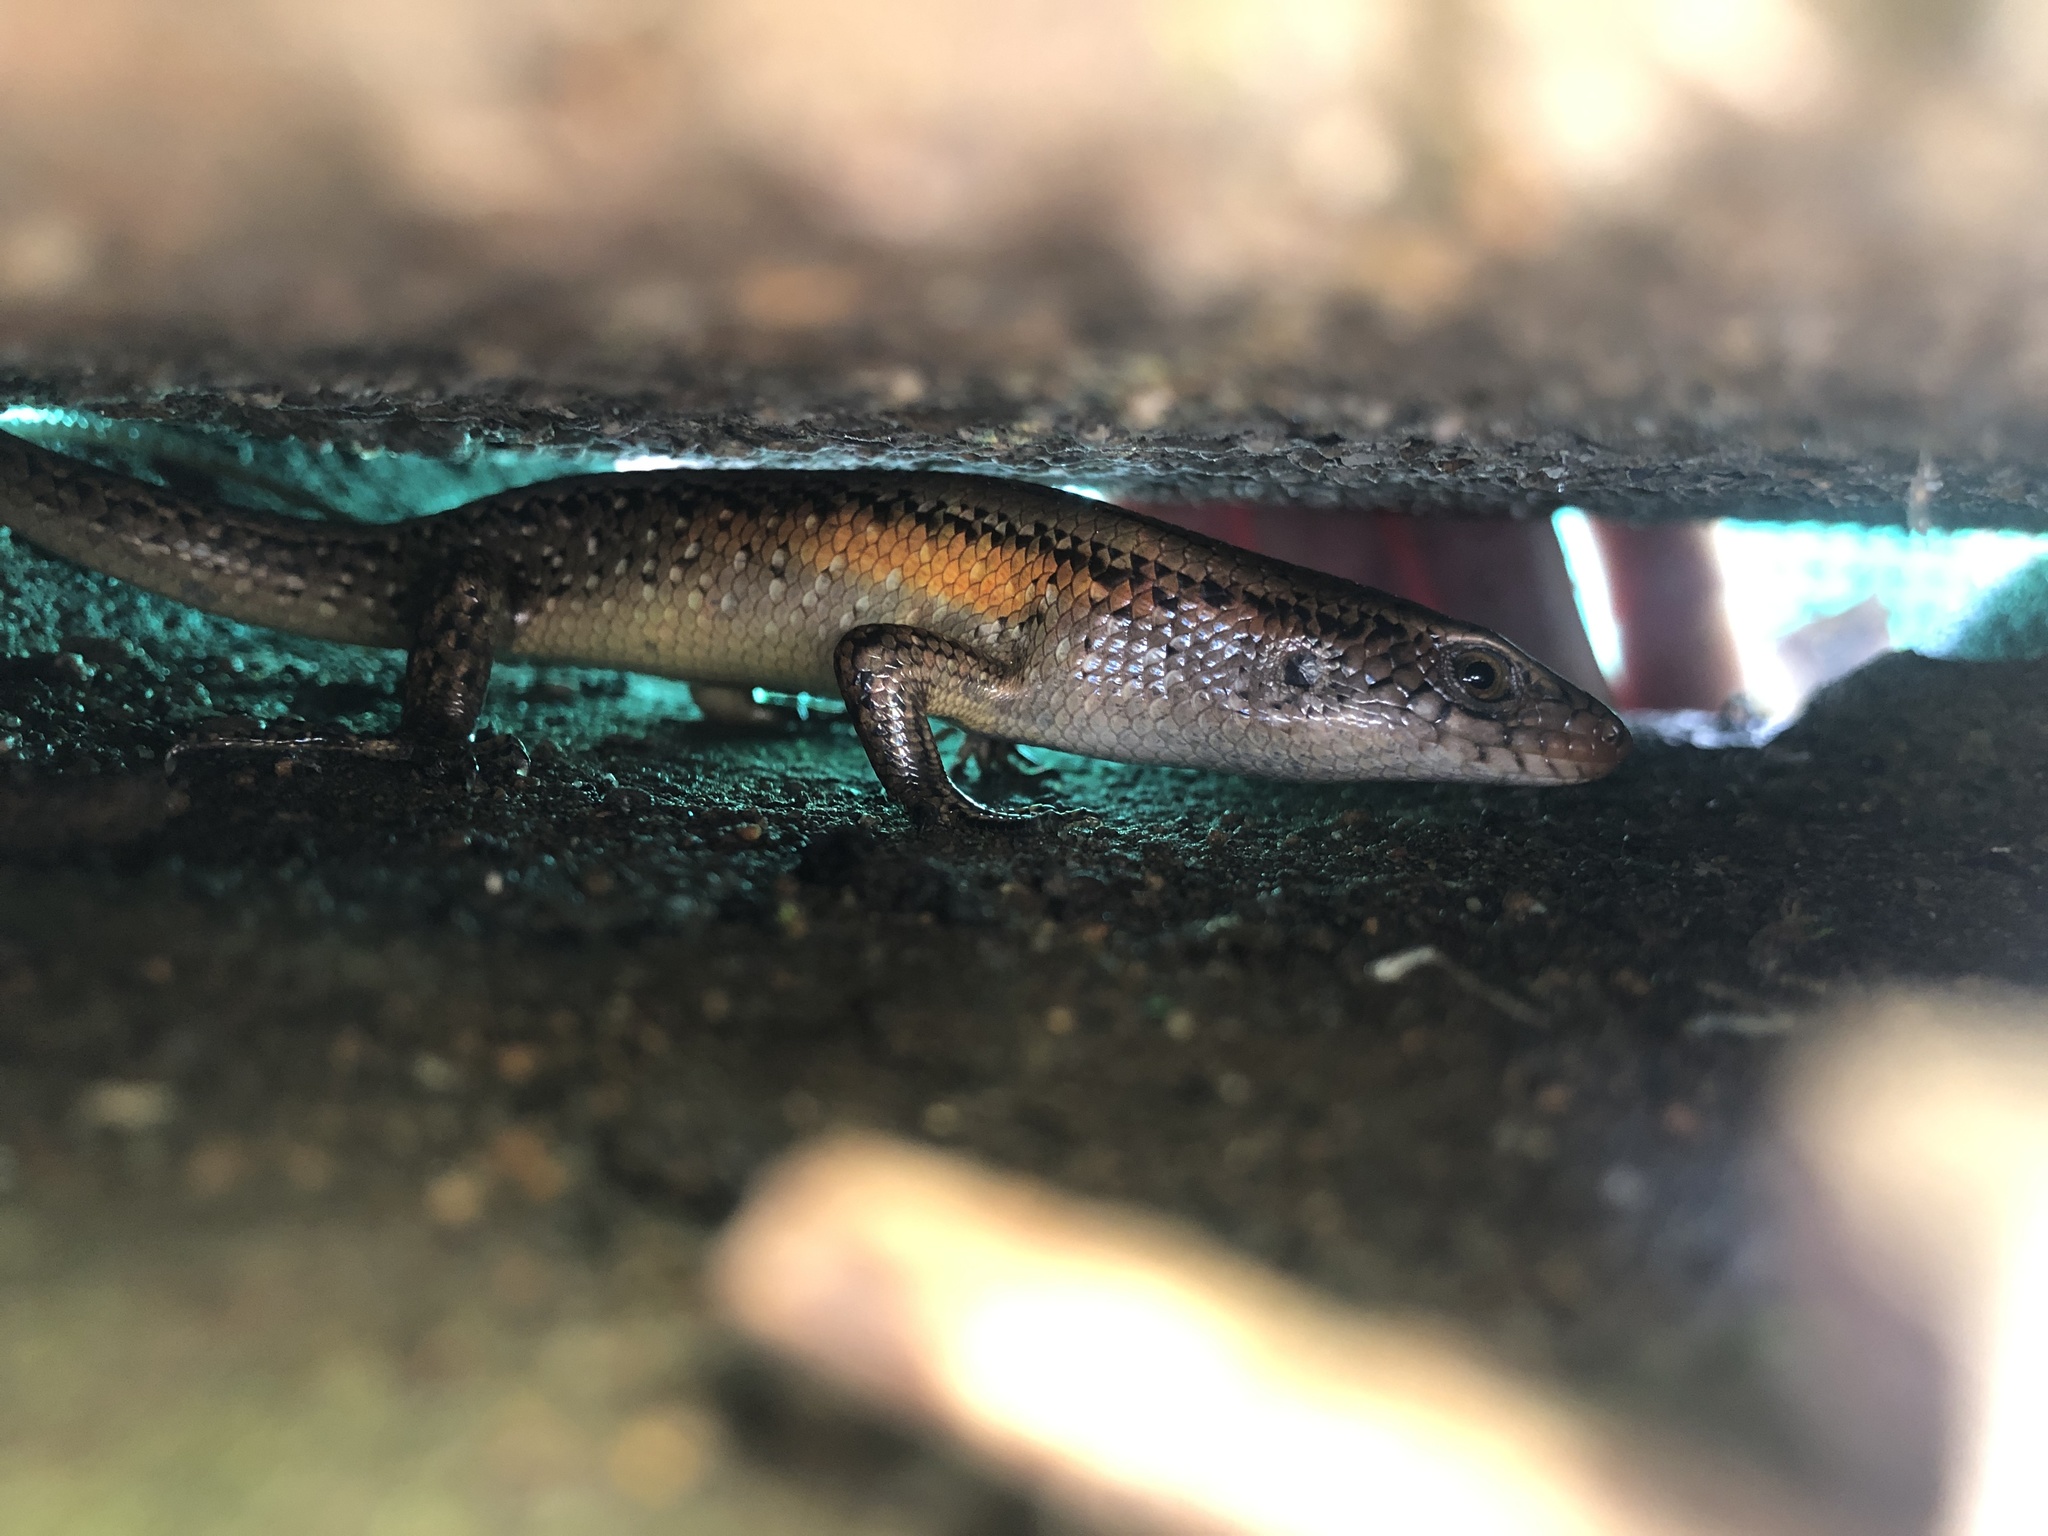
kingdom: Animalia
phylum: Chordata
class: Squamata
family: Scincidae
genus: Eutropis
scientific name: Eutropis multifasciata
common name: Common mabuya
